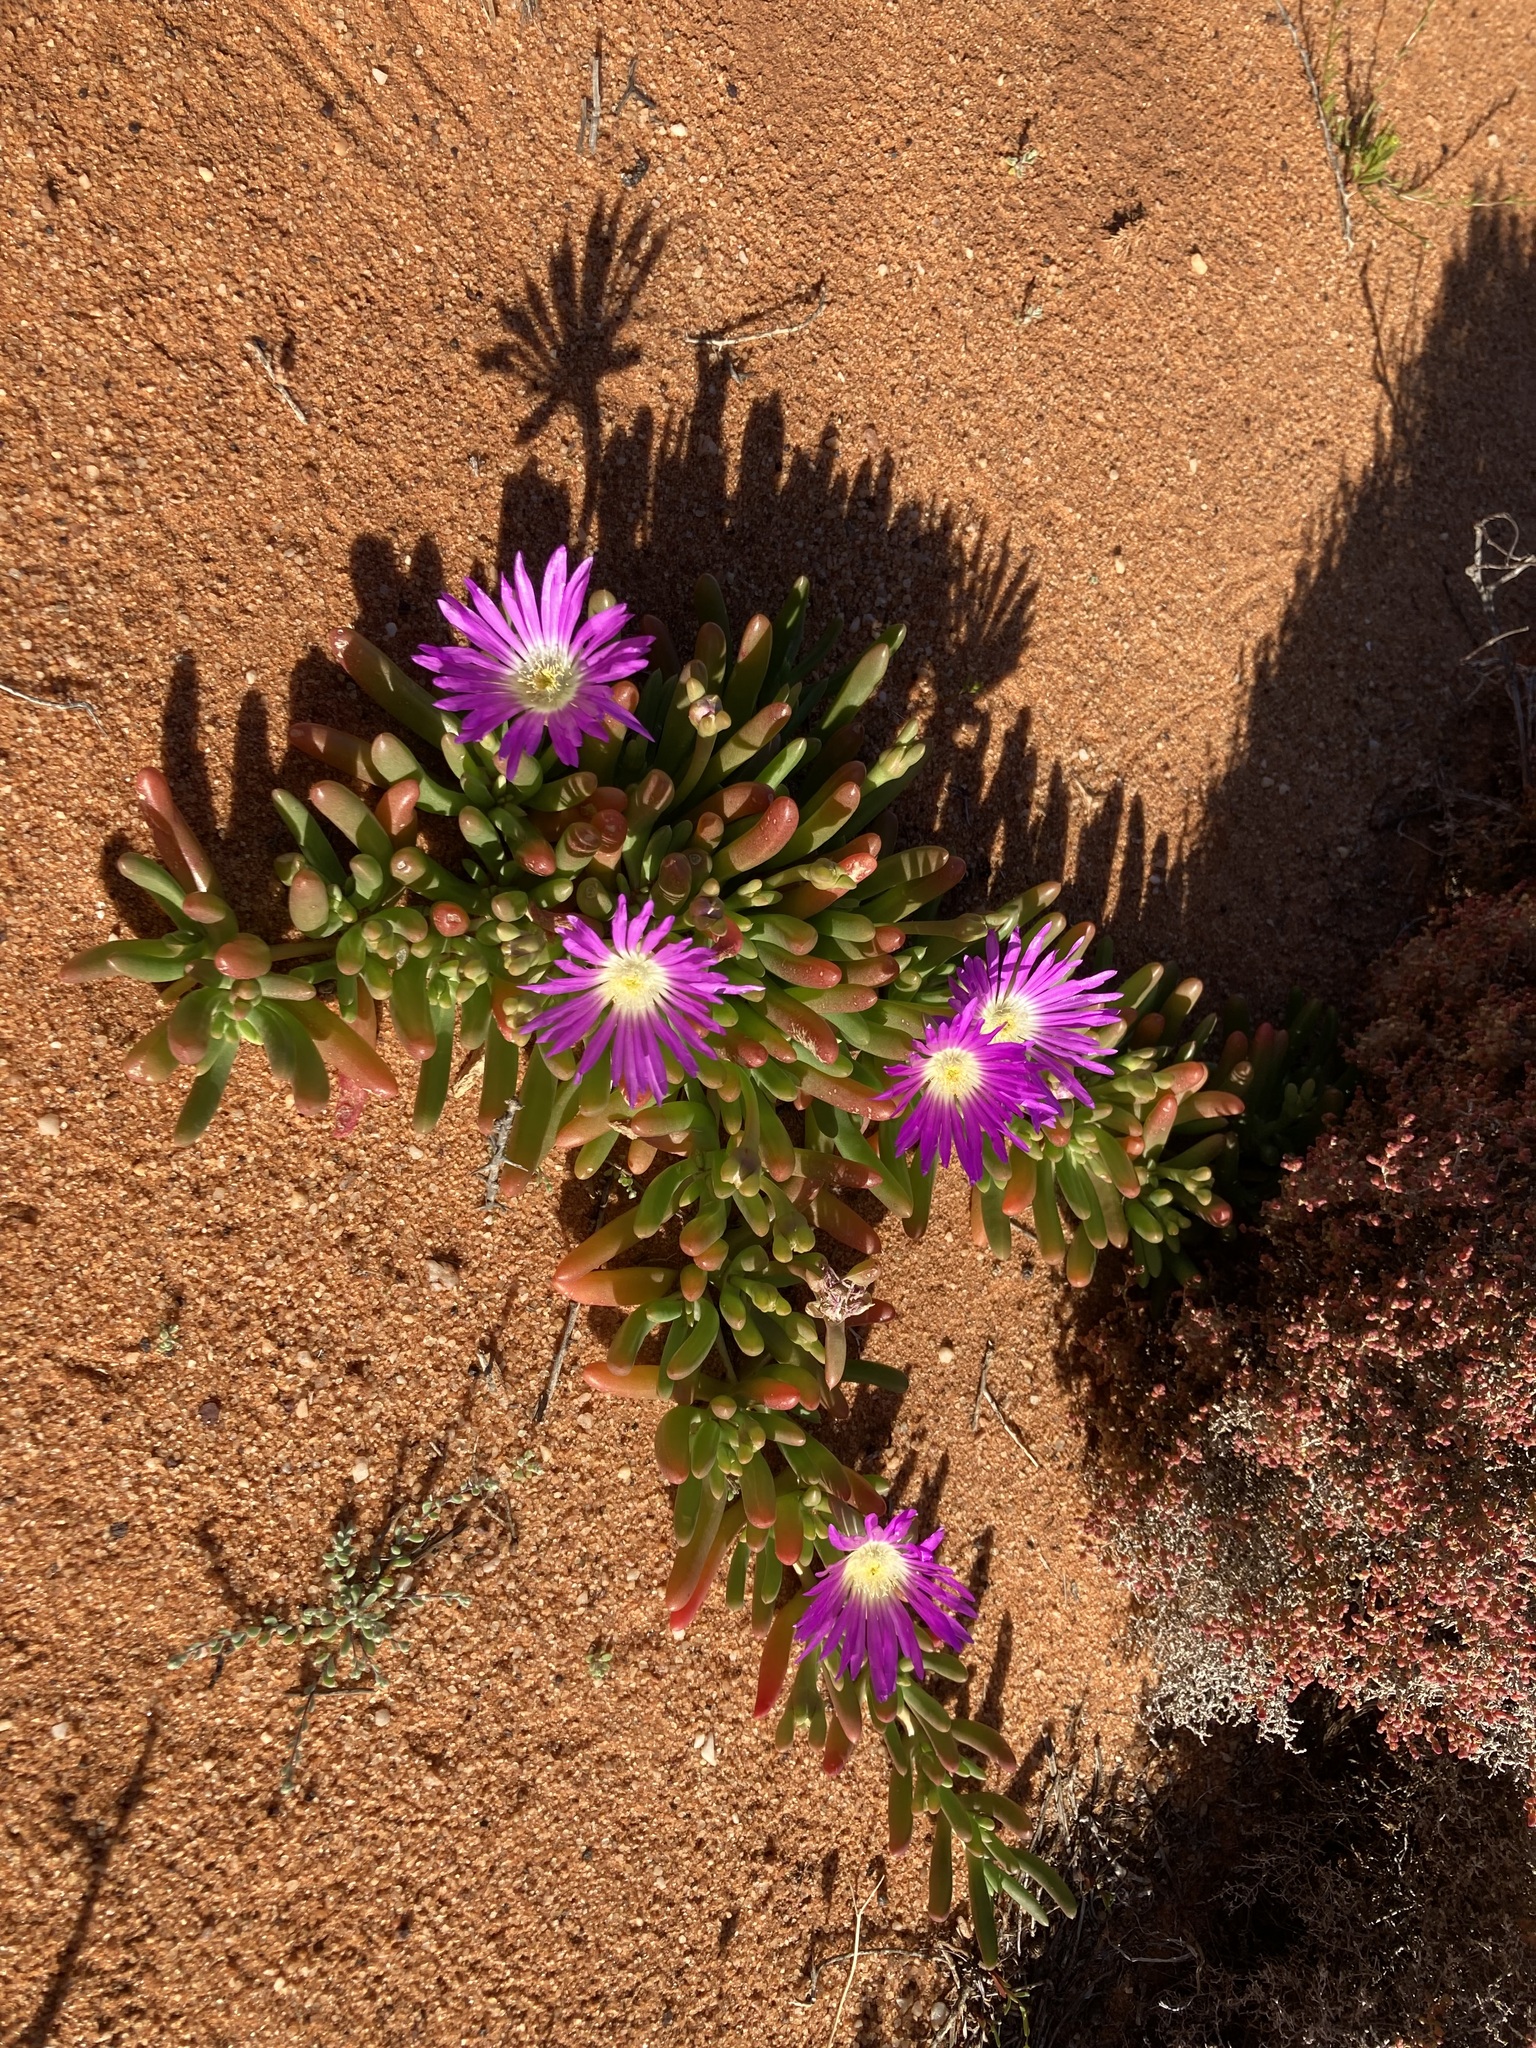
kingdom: Plantae
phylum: Tracheophyta
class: Magnoliopsida
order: Caryophyllales
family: Aizoaceae
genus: Disphyma
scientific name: Disphyma crassifolium
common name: Purple dewplant
